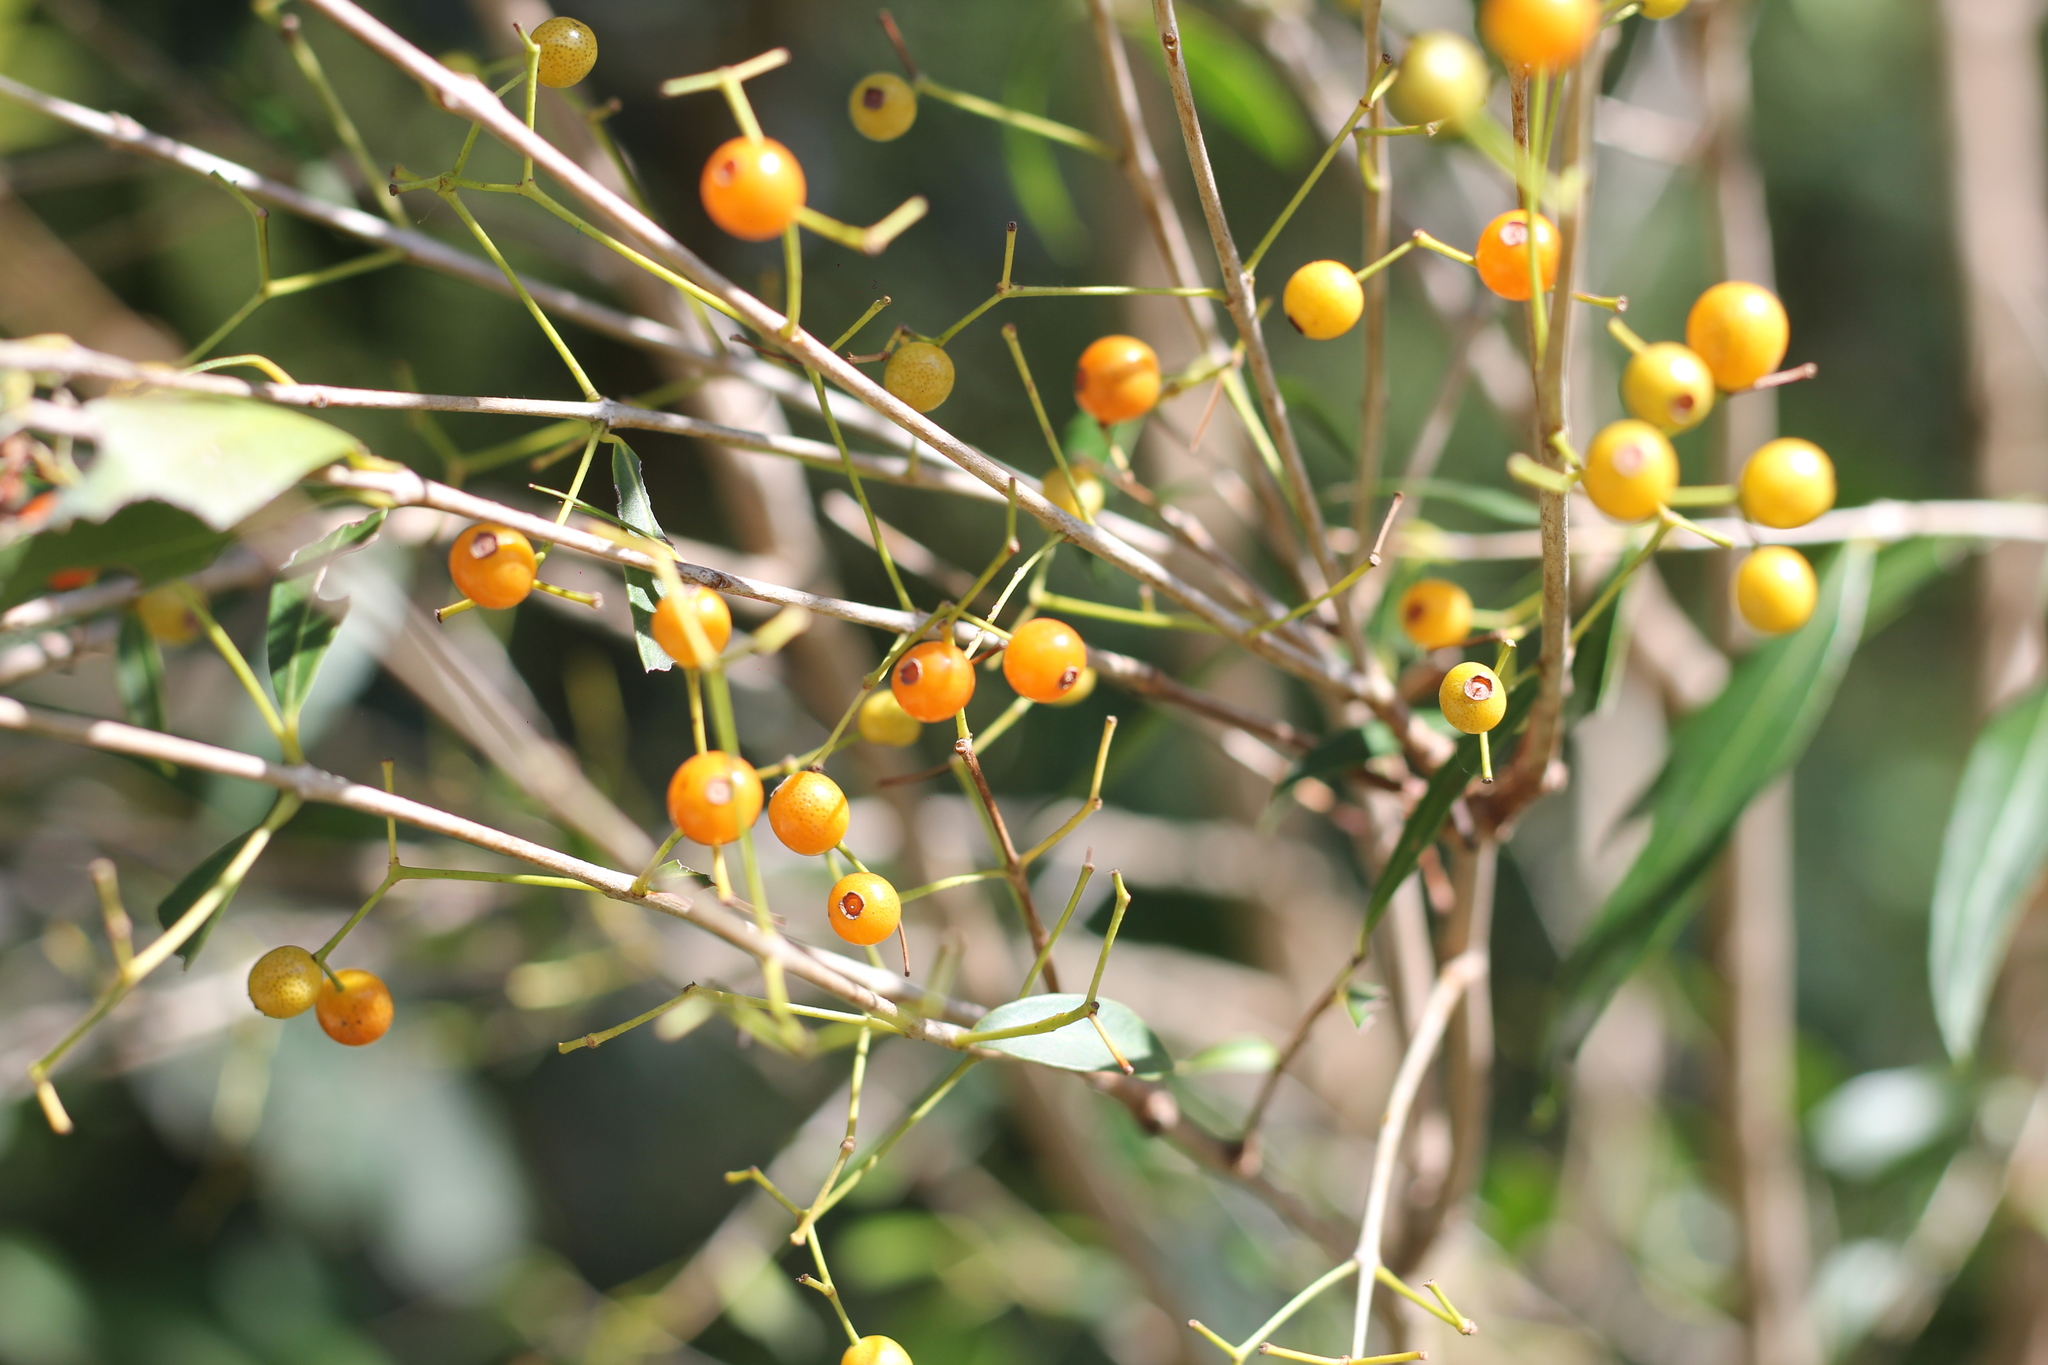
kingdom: Plantae
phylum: Tracheophyta
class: Magnoliopsida
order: Myrtales
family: Myrtaceae
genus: Blepharocalyx
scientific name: Blepharocalyx salicifolius
